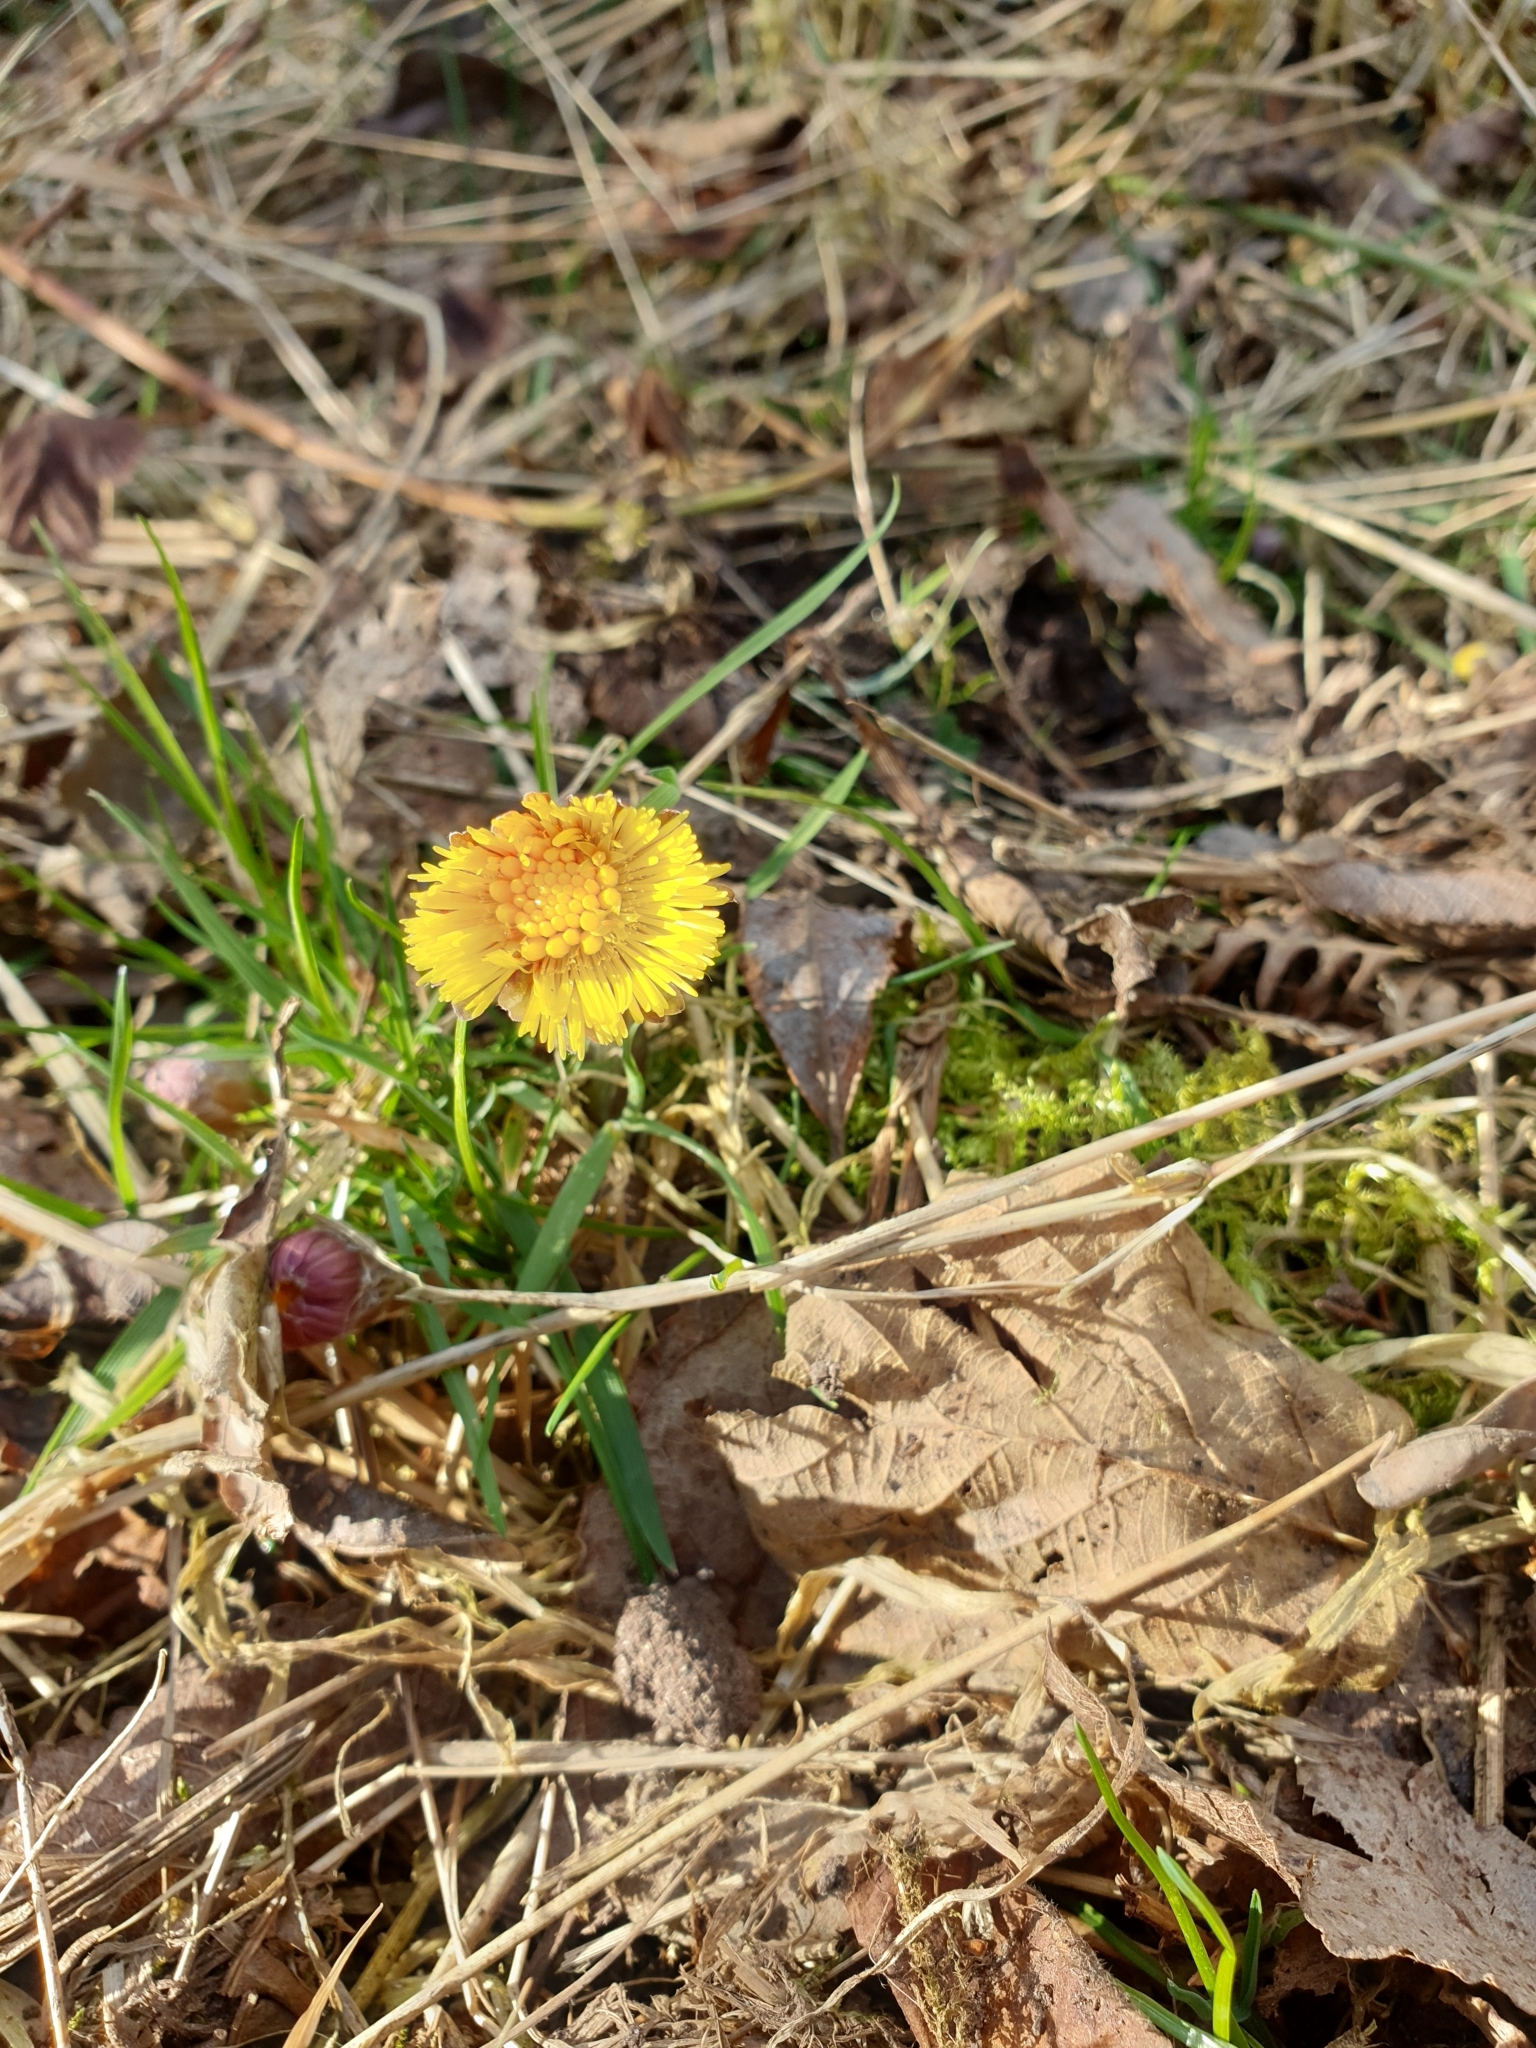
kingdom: Plantae
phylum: Tracheophyta
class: Magnoliopsida
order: Asterales
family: Asteraceae
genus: Tussilago
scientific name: Tussilago farfara
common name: Coltsfoot
